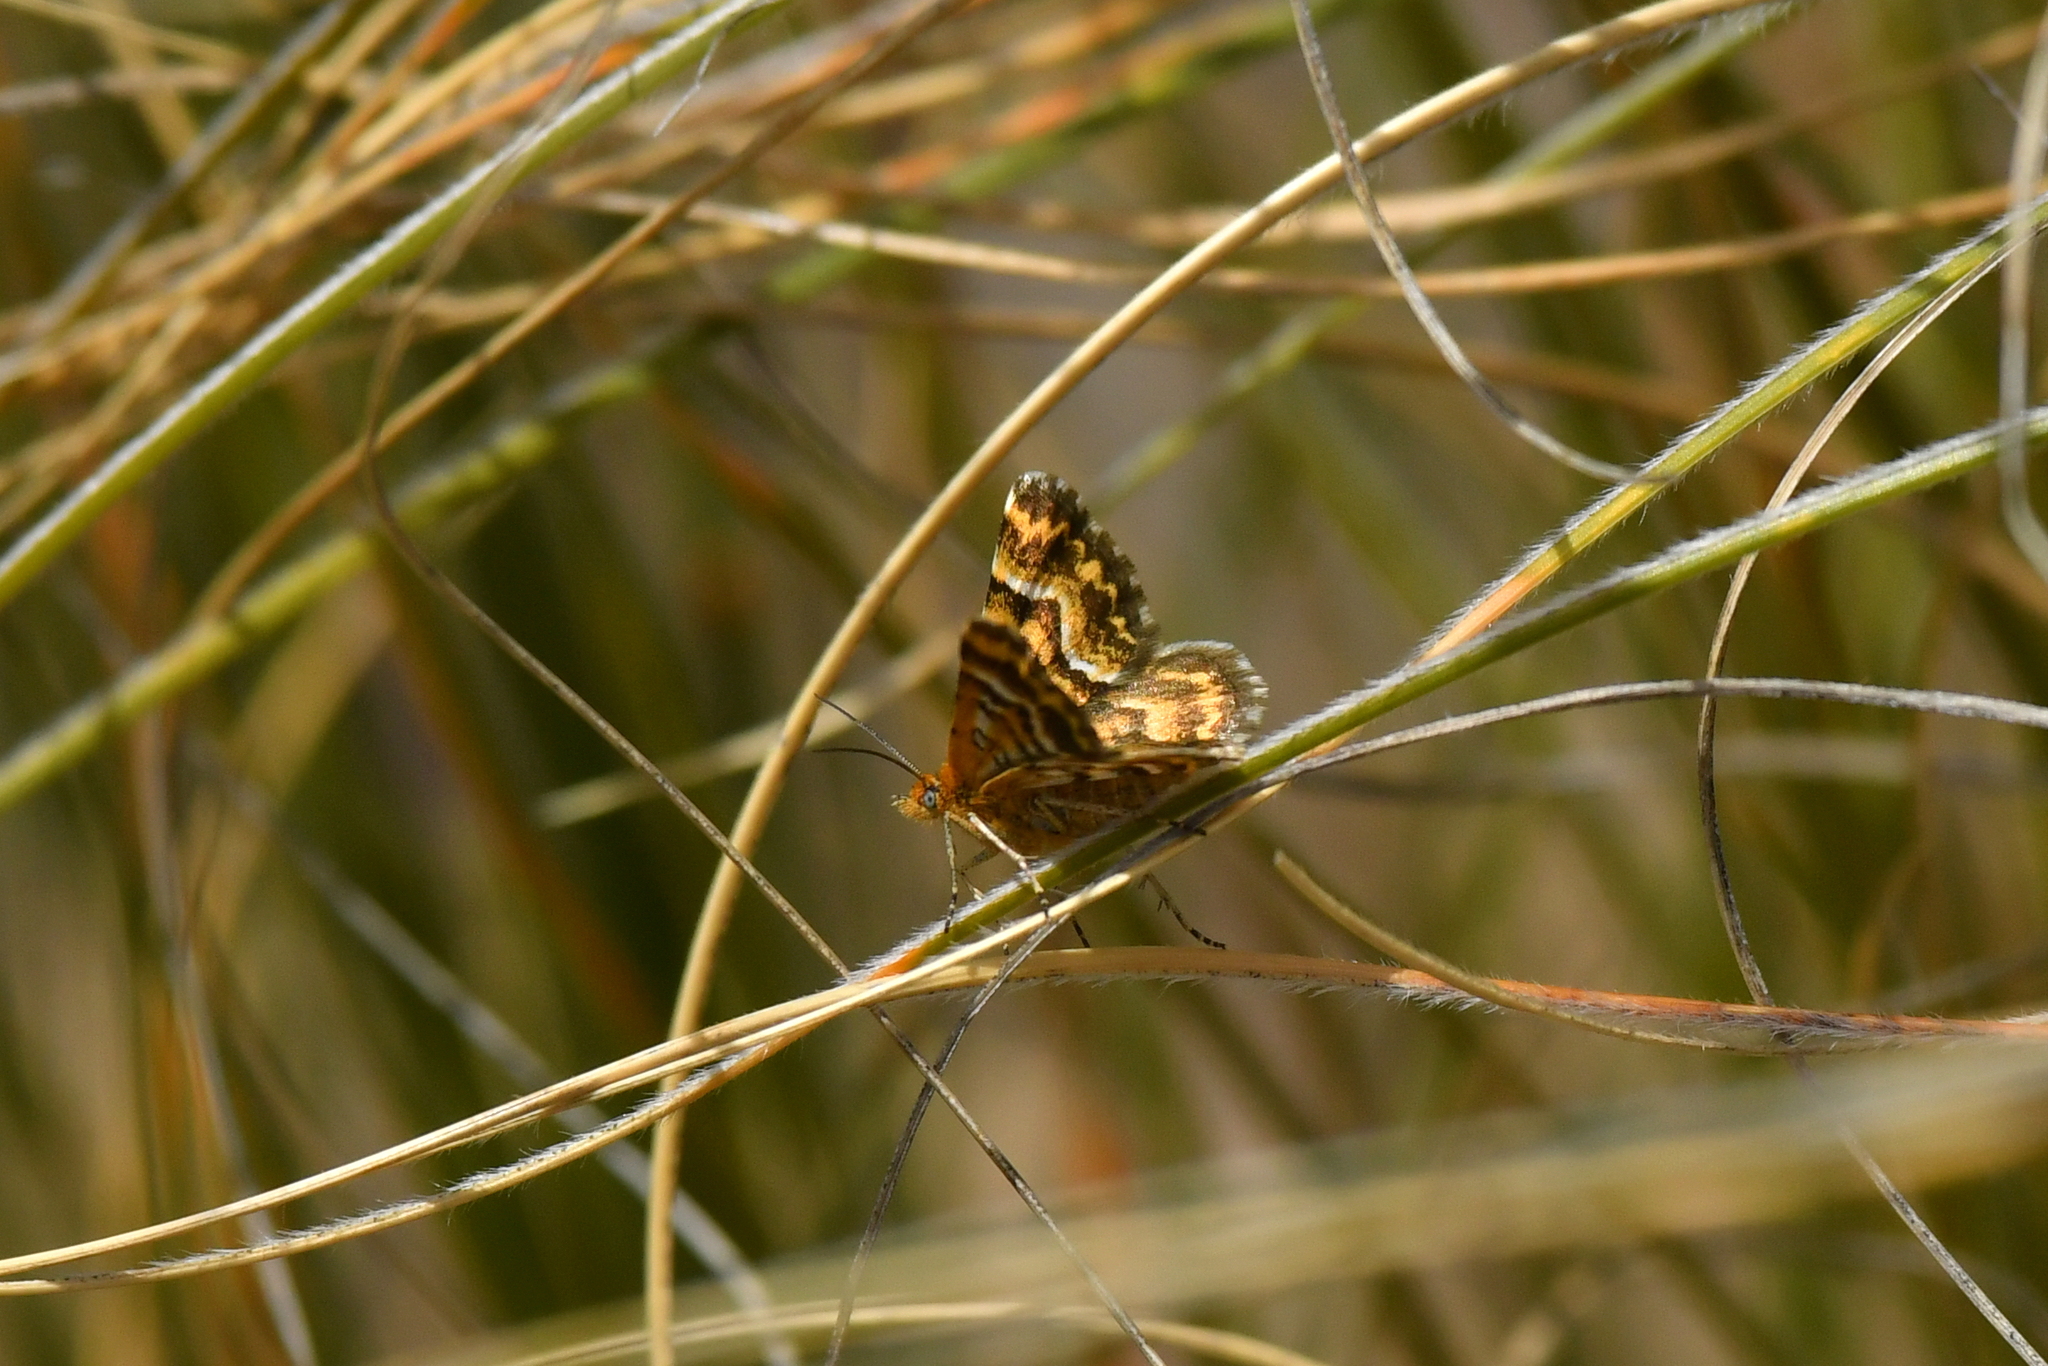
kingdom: Animalia
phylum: Arthropoda
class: Insecta
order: Lepidoptera
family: Geometridae
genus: Notoreas
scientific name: Notoreas
